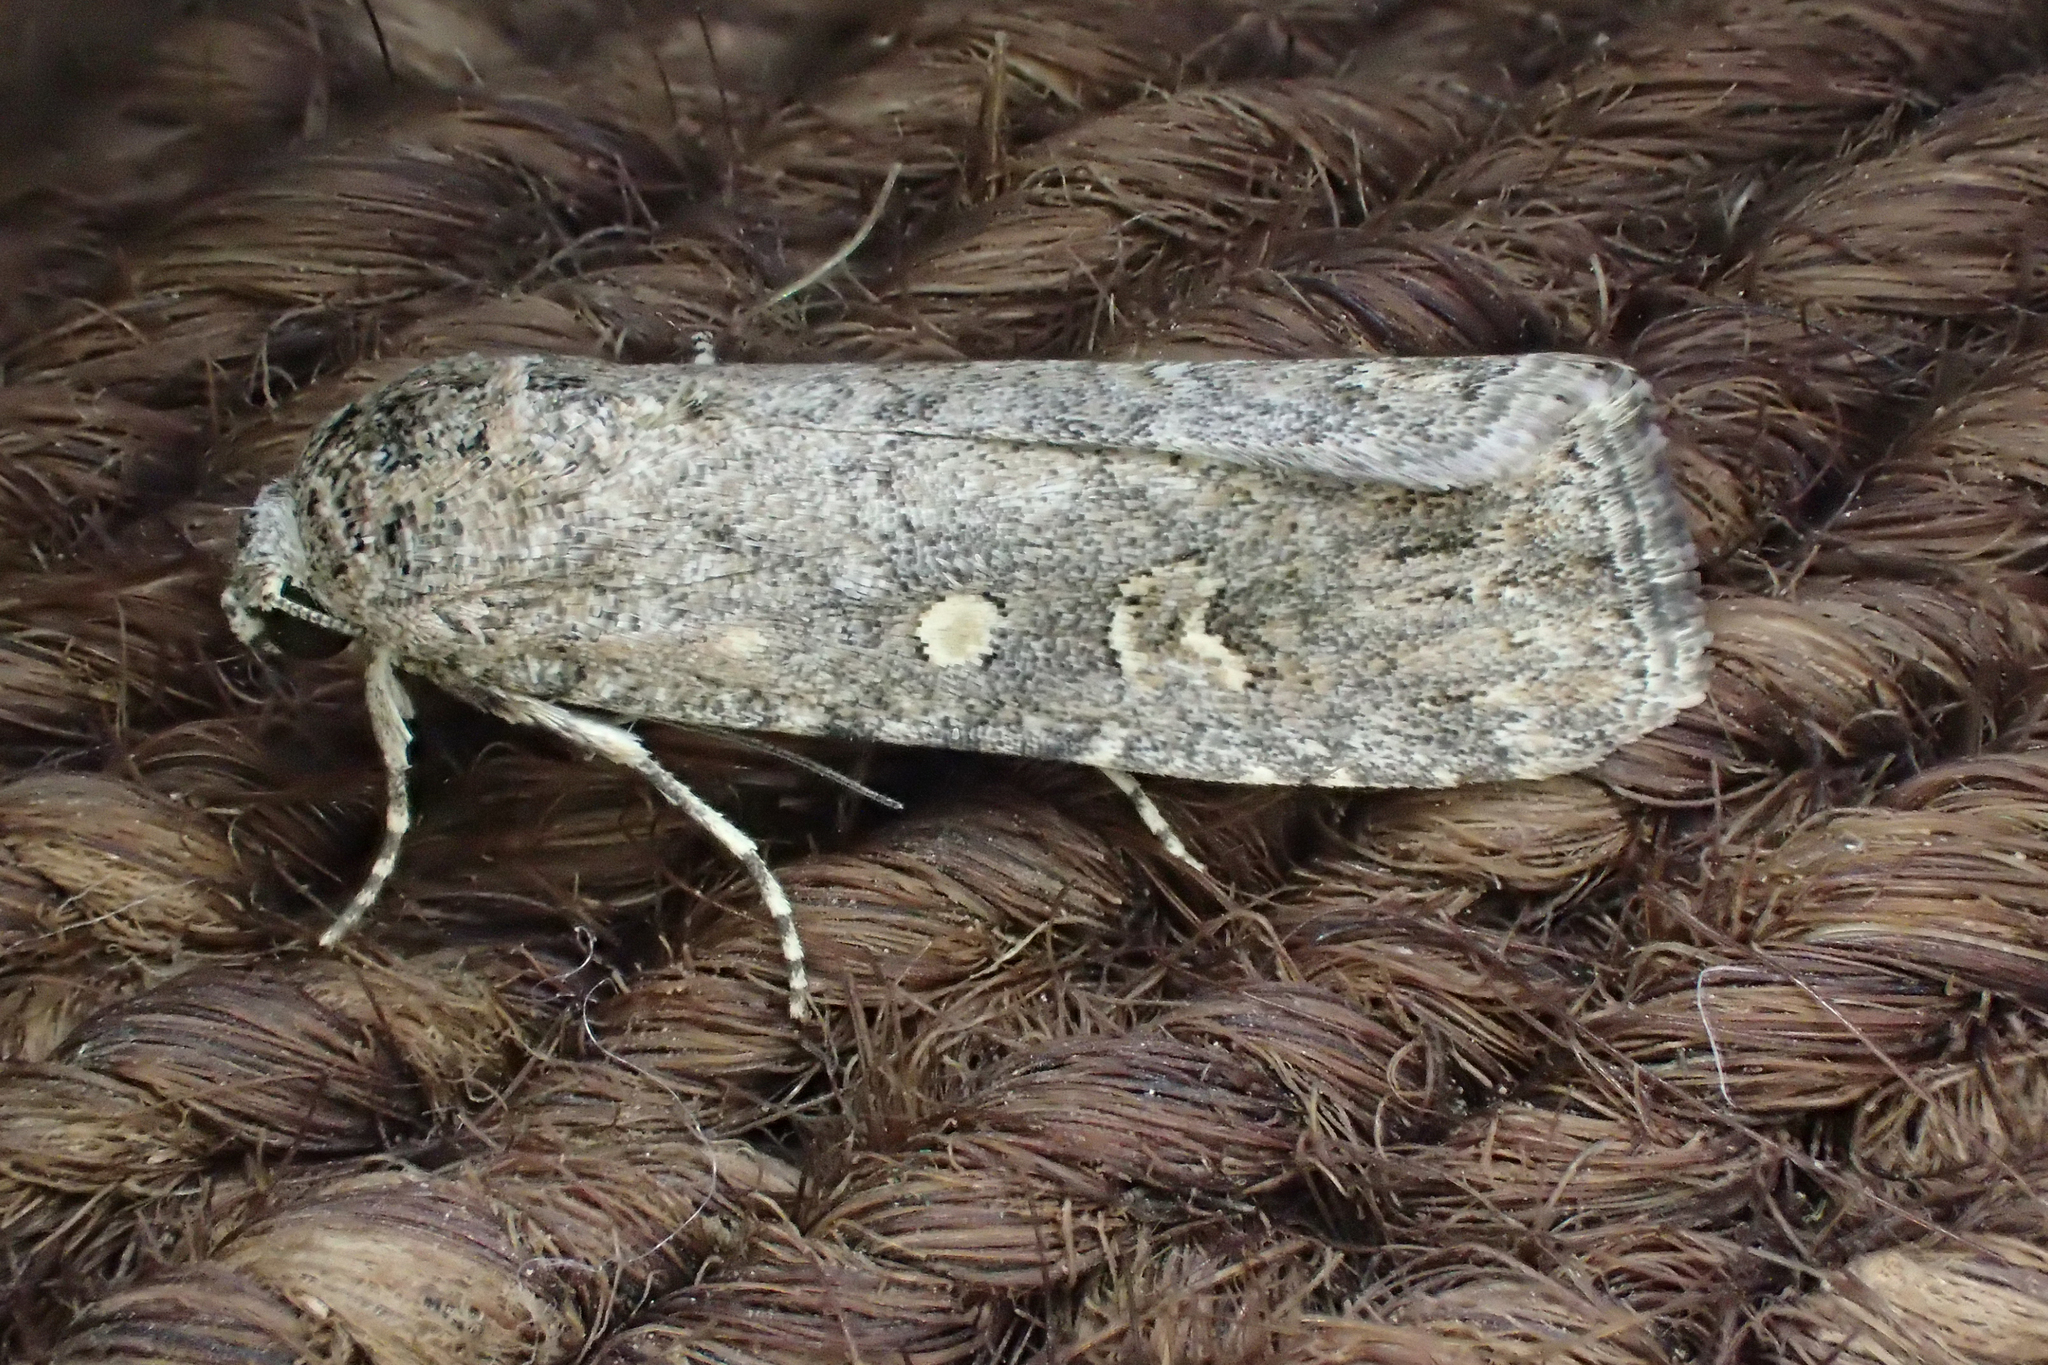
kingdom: Animalia
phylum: Arthropoda
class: Insecta
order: Lepidoptera
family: Noctuidae
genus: Spodoptera
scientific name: Spodoptera exigua
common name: Beet armyworm
